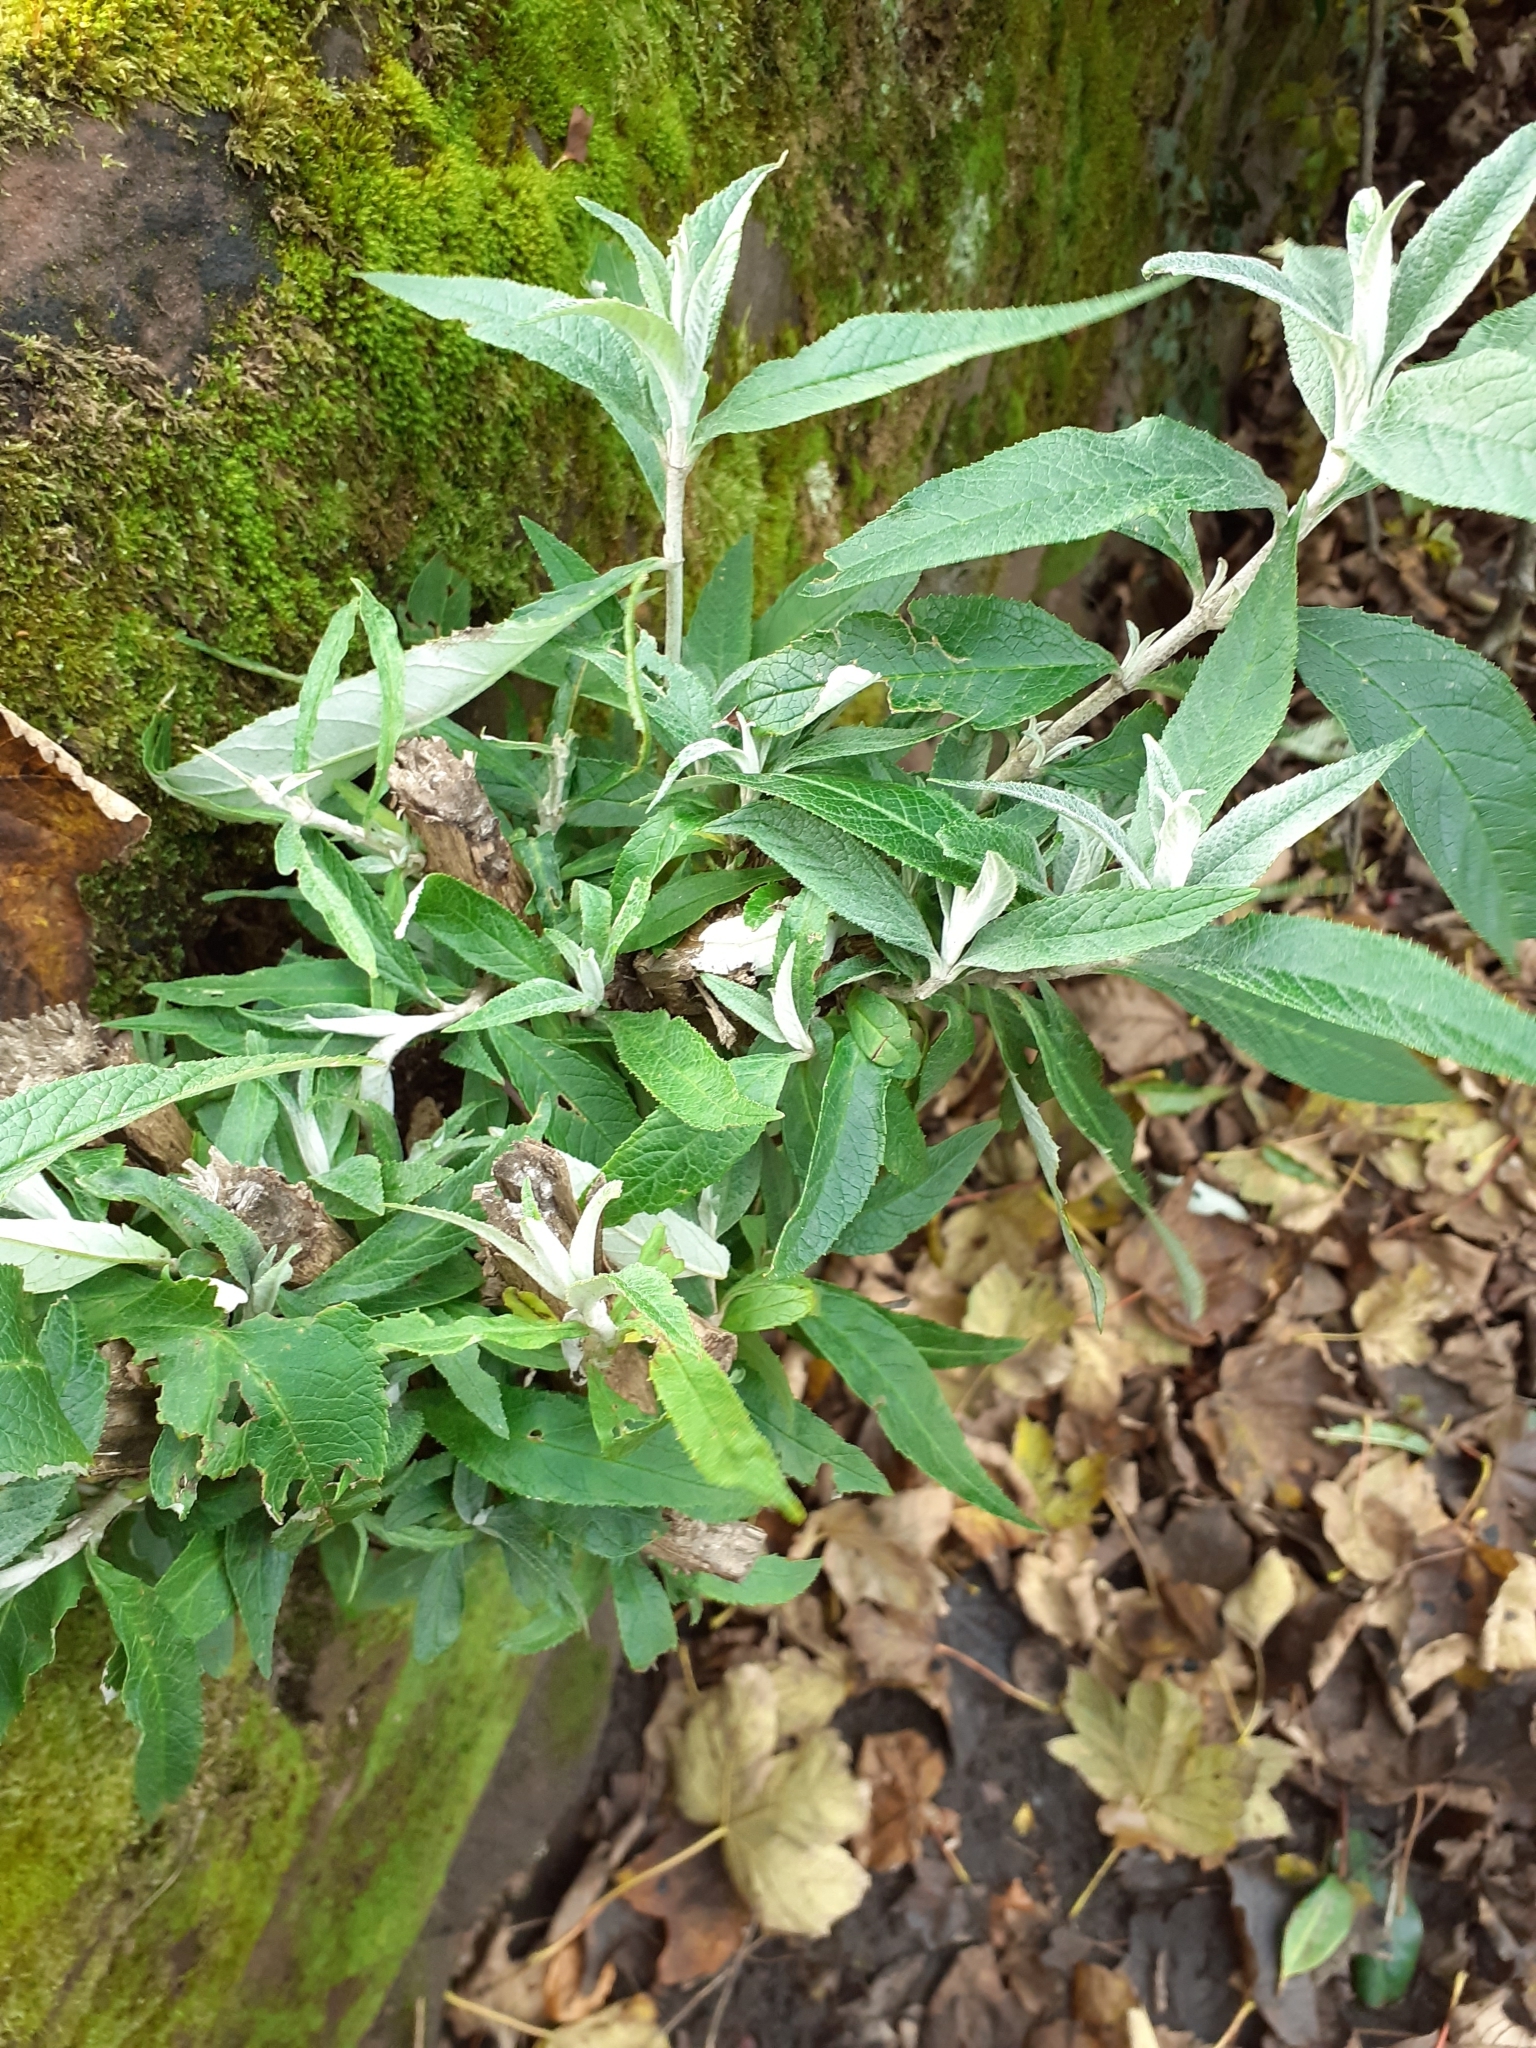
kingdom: Plantae
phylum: Tracheophyta
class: Magnoliopsida
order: Lamiales
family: Scrophulariaceae
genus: Buddleja
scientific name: Buddleja davidii
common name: Butterfly-bush
